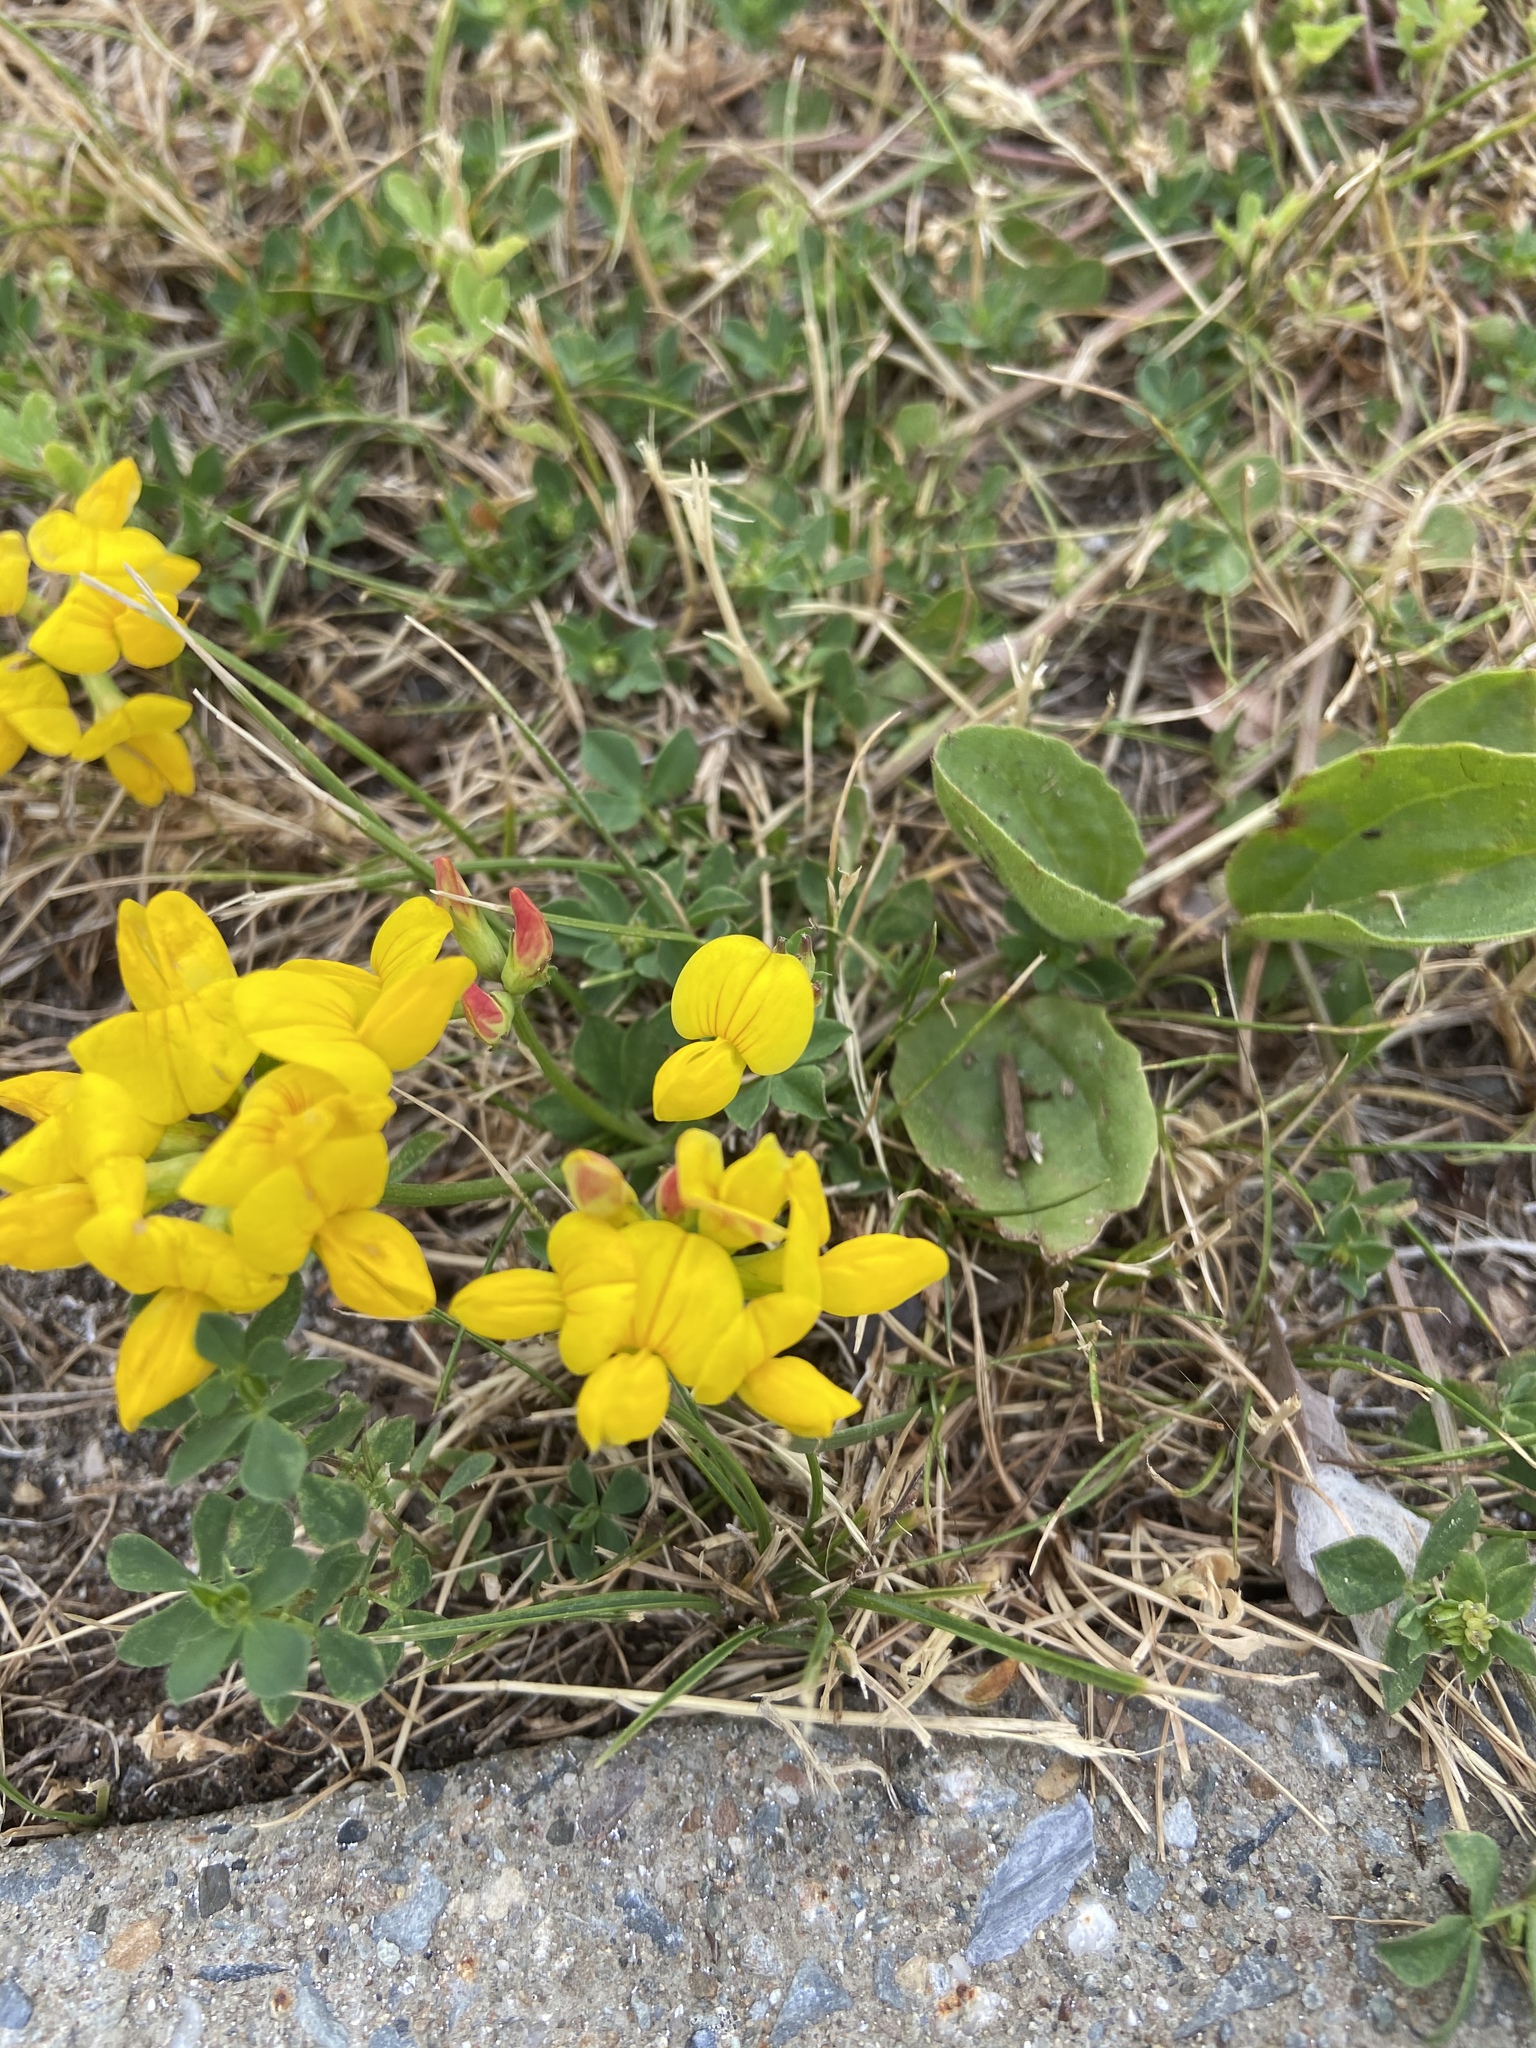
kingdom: Plantae
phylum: Tracheophyta
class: Magnoliopsida
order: Fabales
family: Fabaceae
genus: Lotus
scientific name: Lotus corniculatus
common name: Common bird's-foot-trefoil
